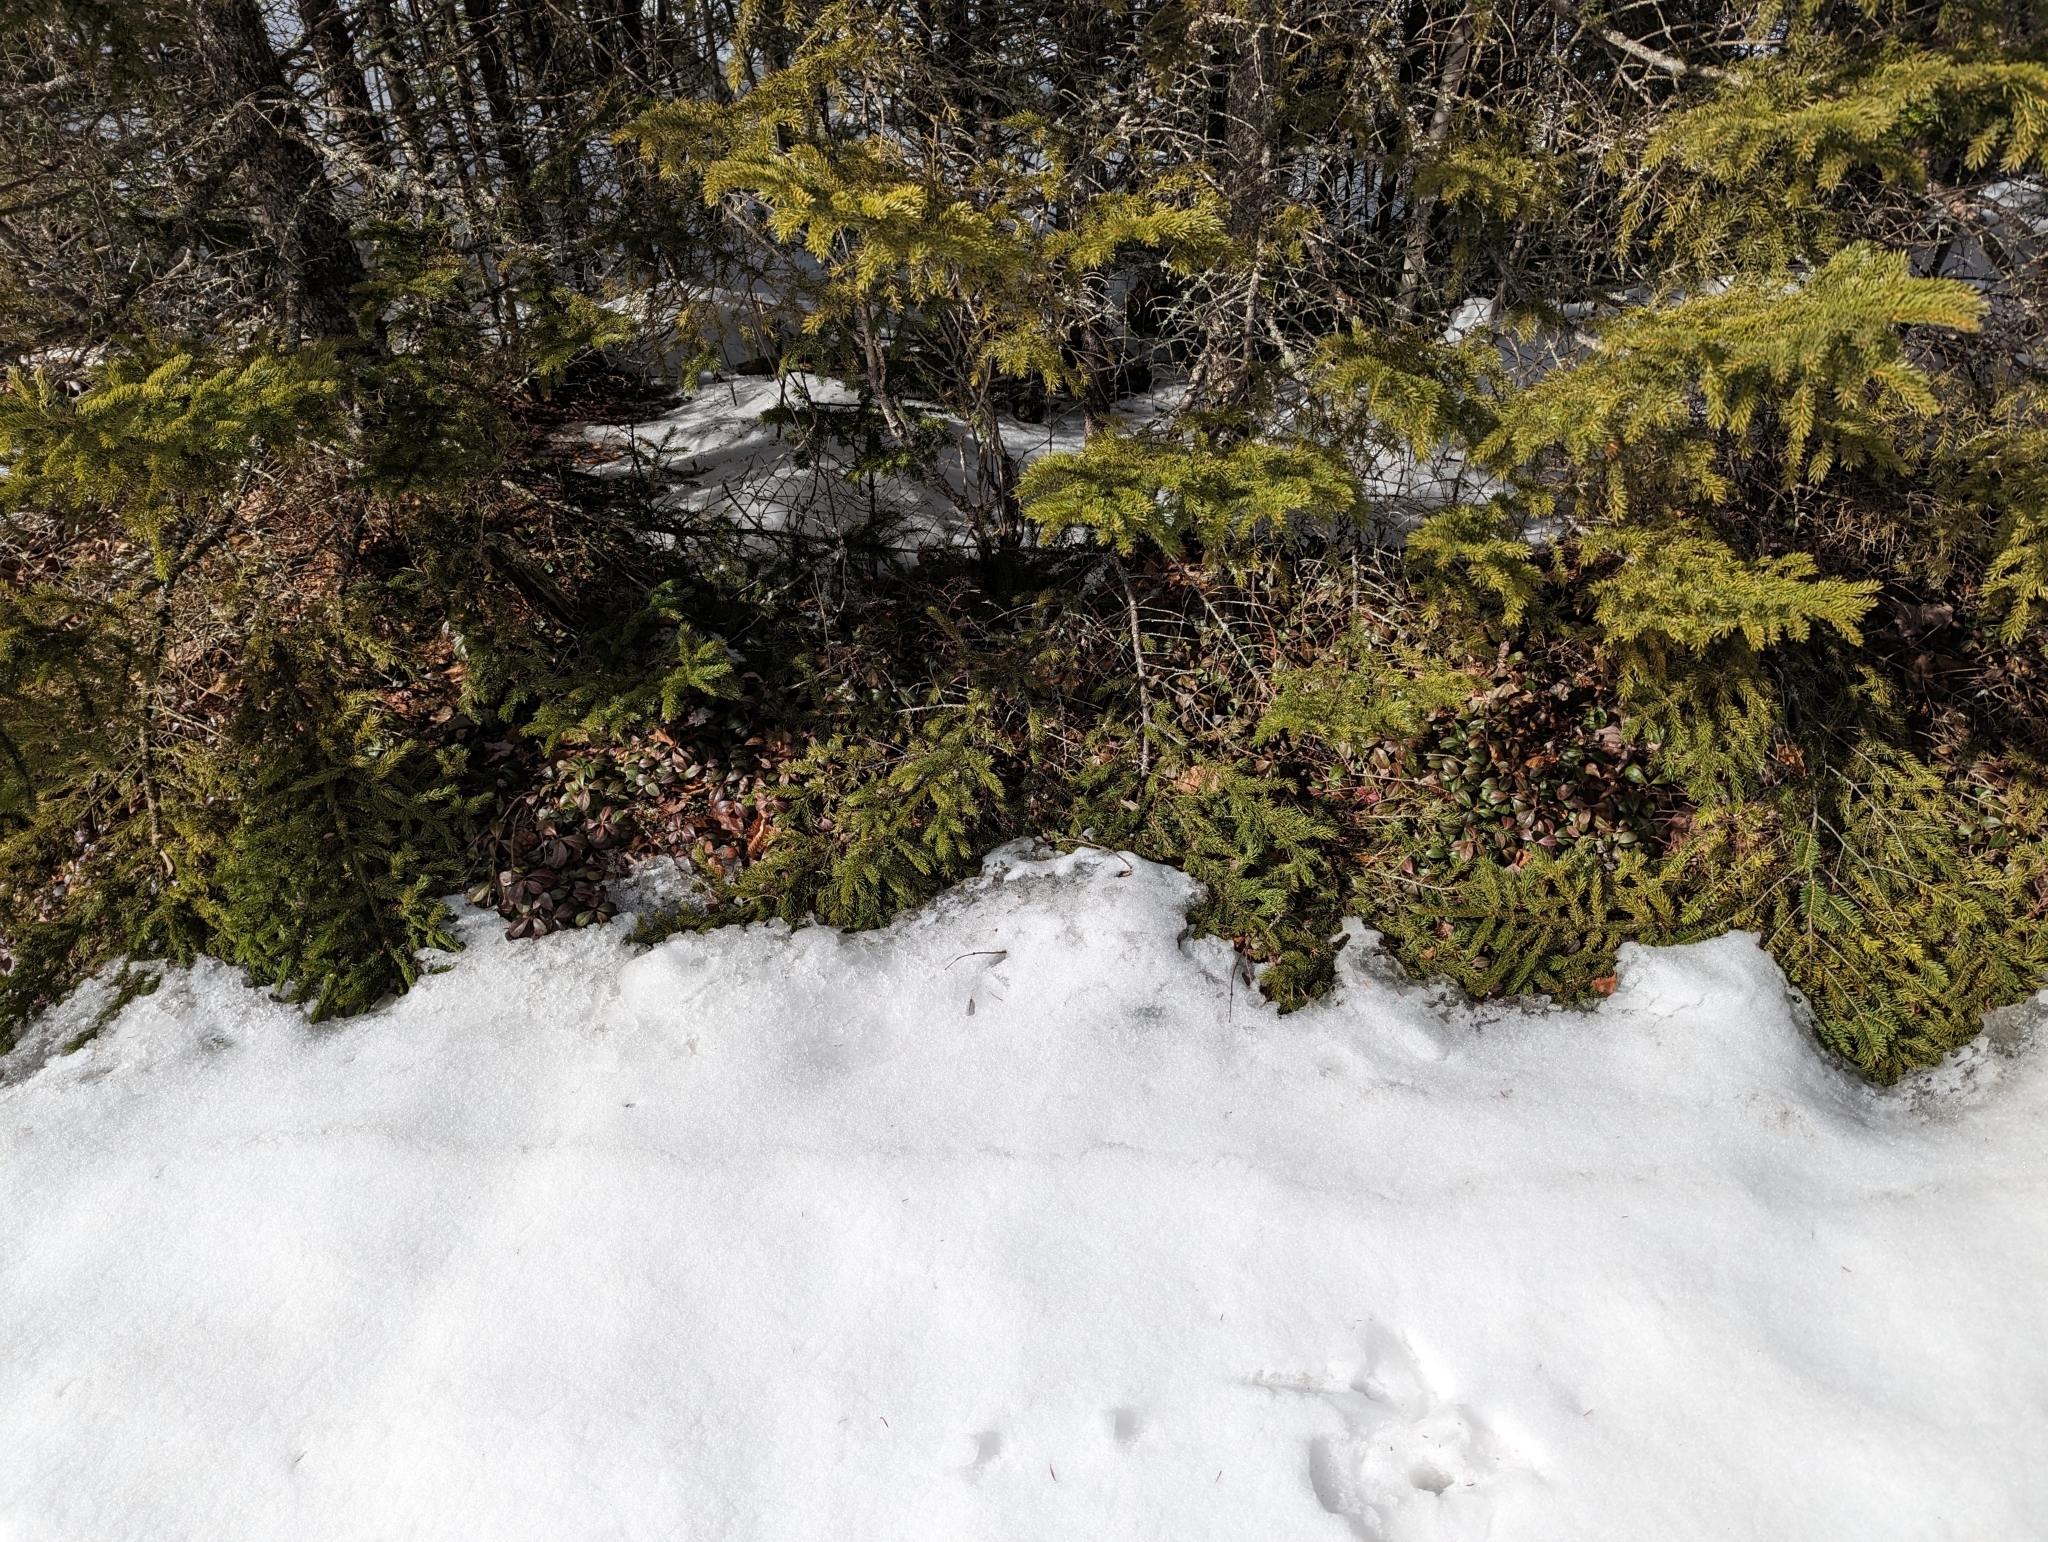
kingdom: Plantae
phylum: Tracheophyta
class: Magnoliopsida
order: Ericales
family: Ericaceae
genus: Gaultheria
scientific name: Gaultheria procumbens
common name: Checkerberry
